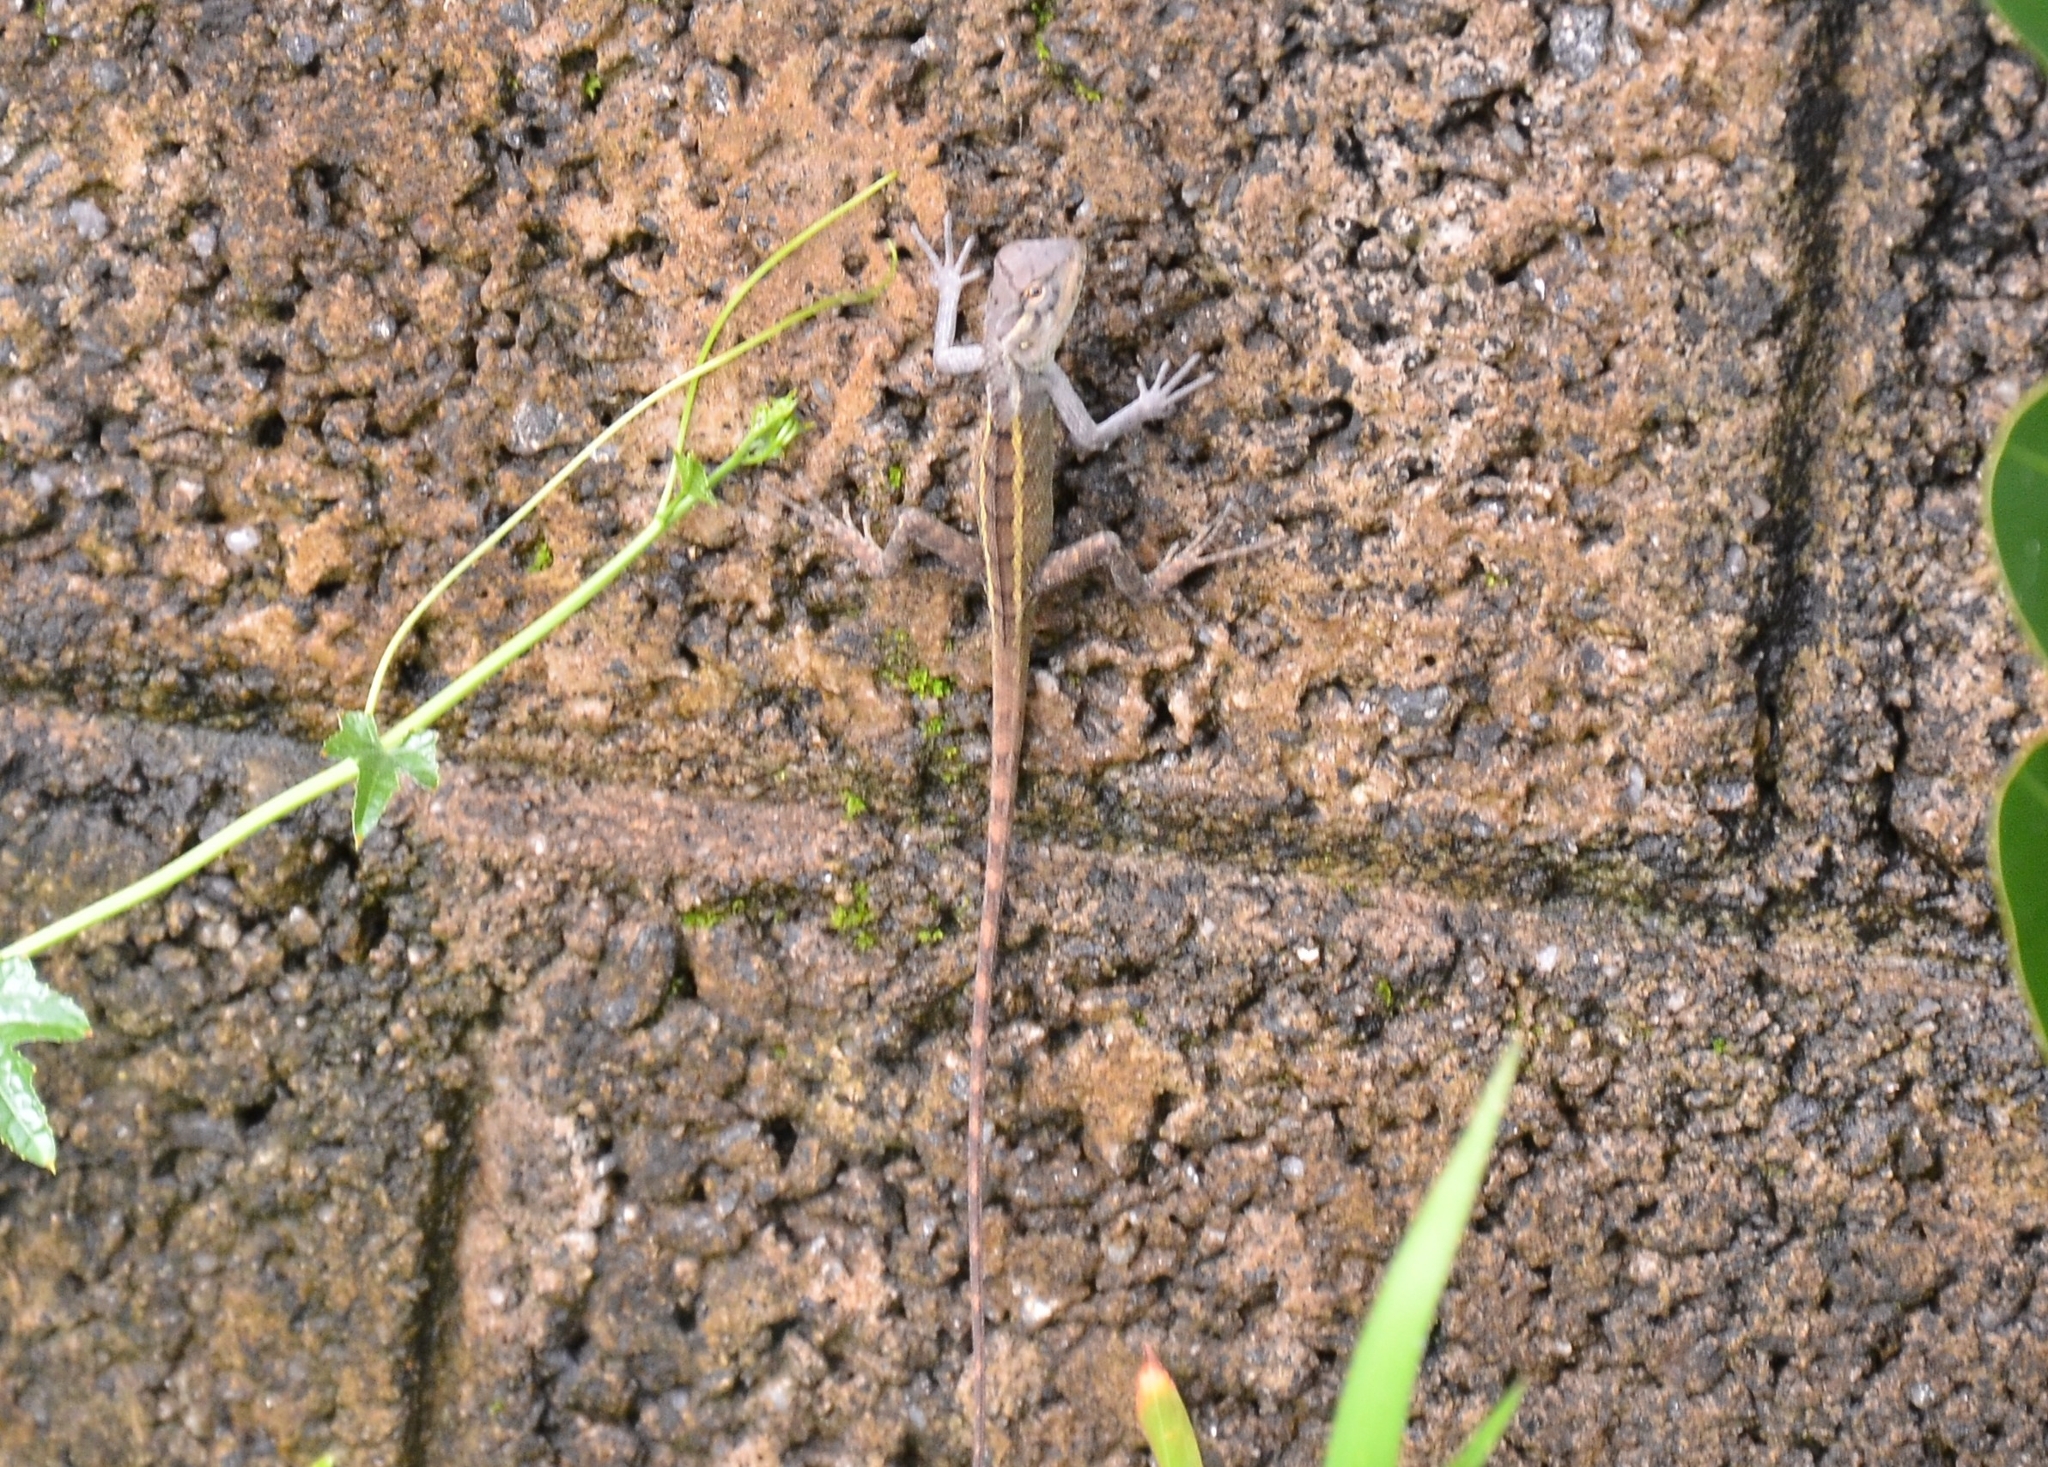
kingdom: Animalia
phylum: Chordata
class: Squamata
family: Agamidae
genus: Calotes
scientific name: Calotes versicolor
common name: Oriental garden lizard
